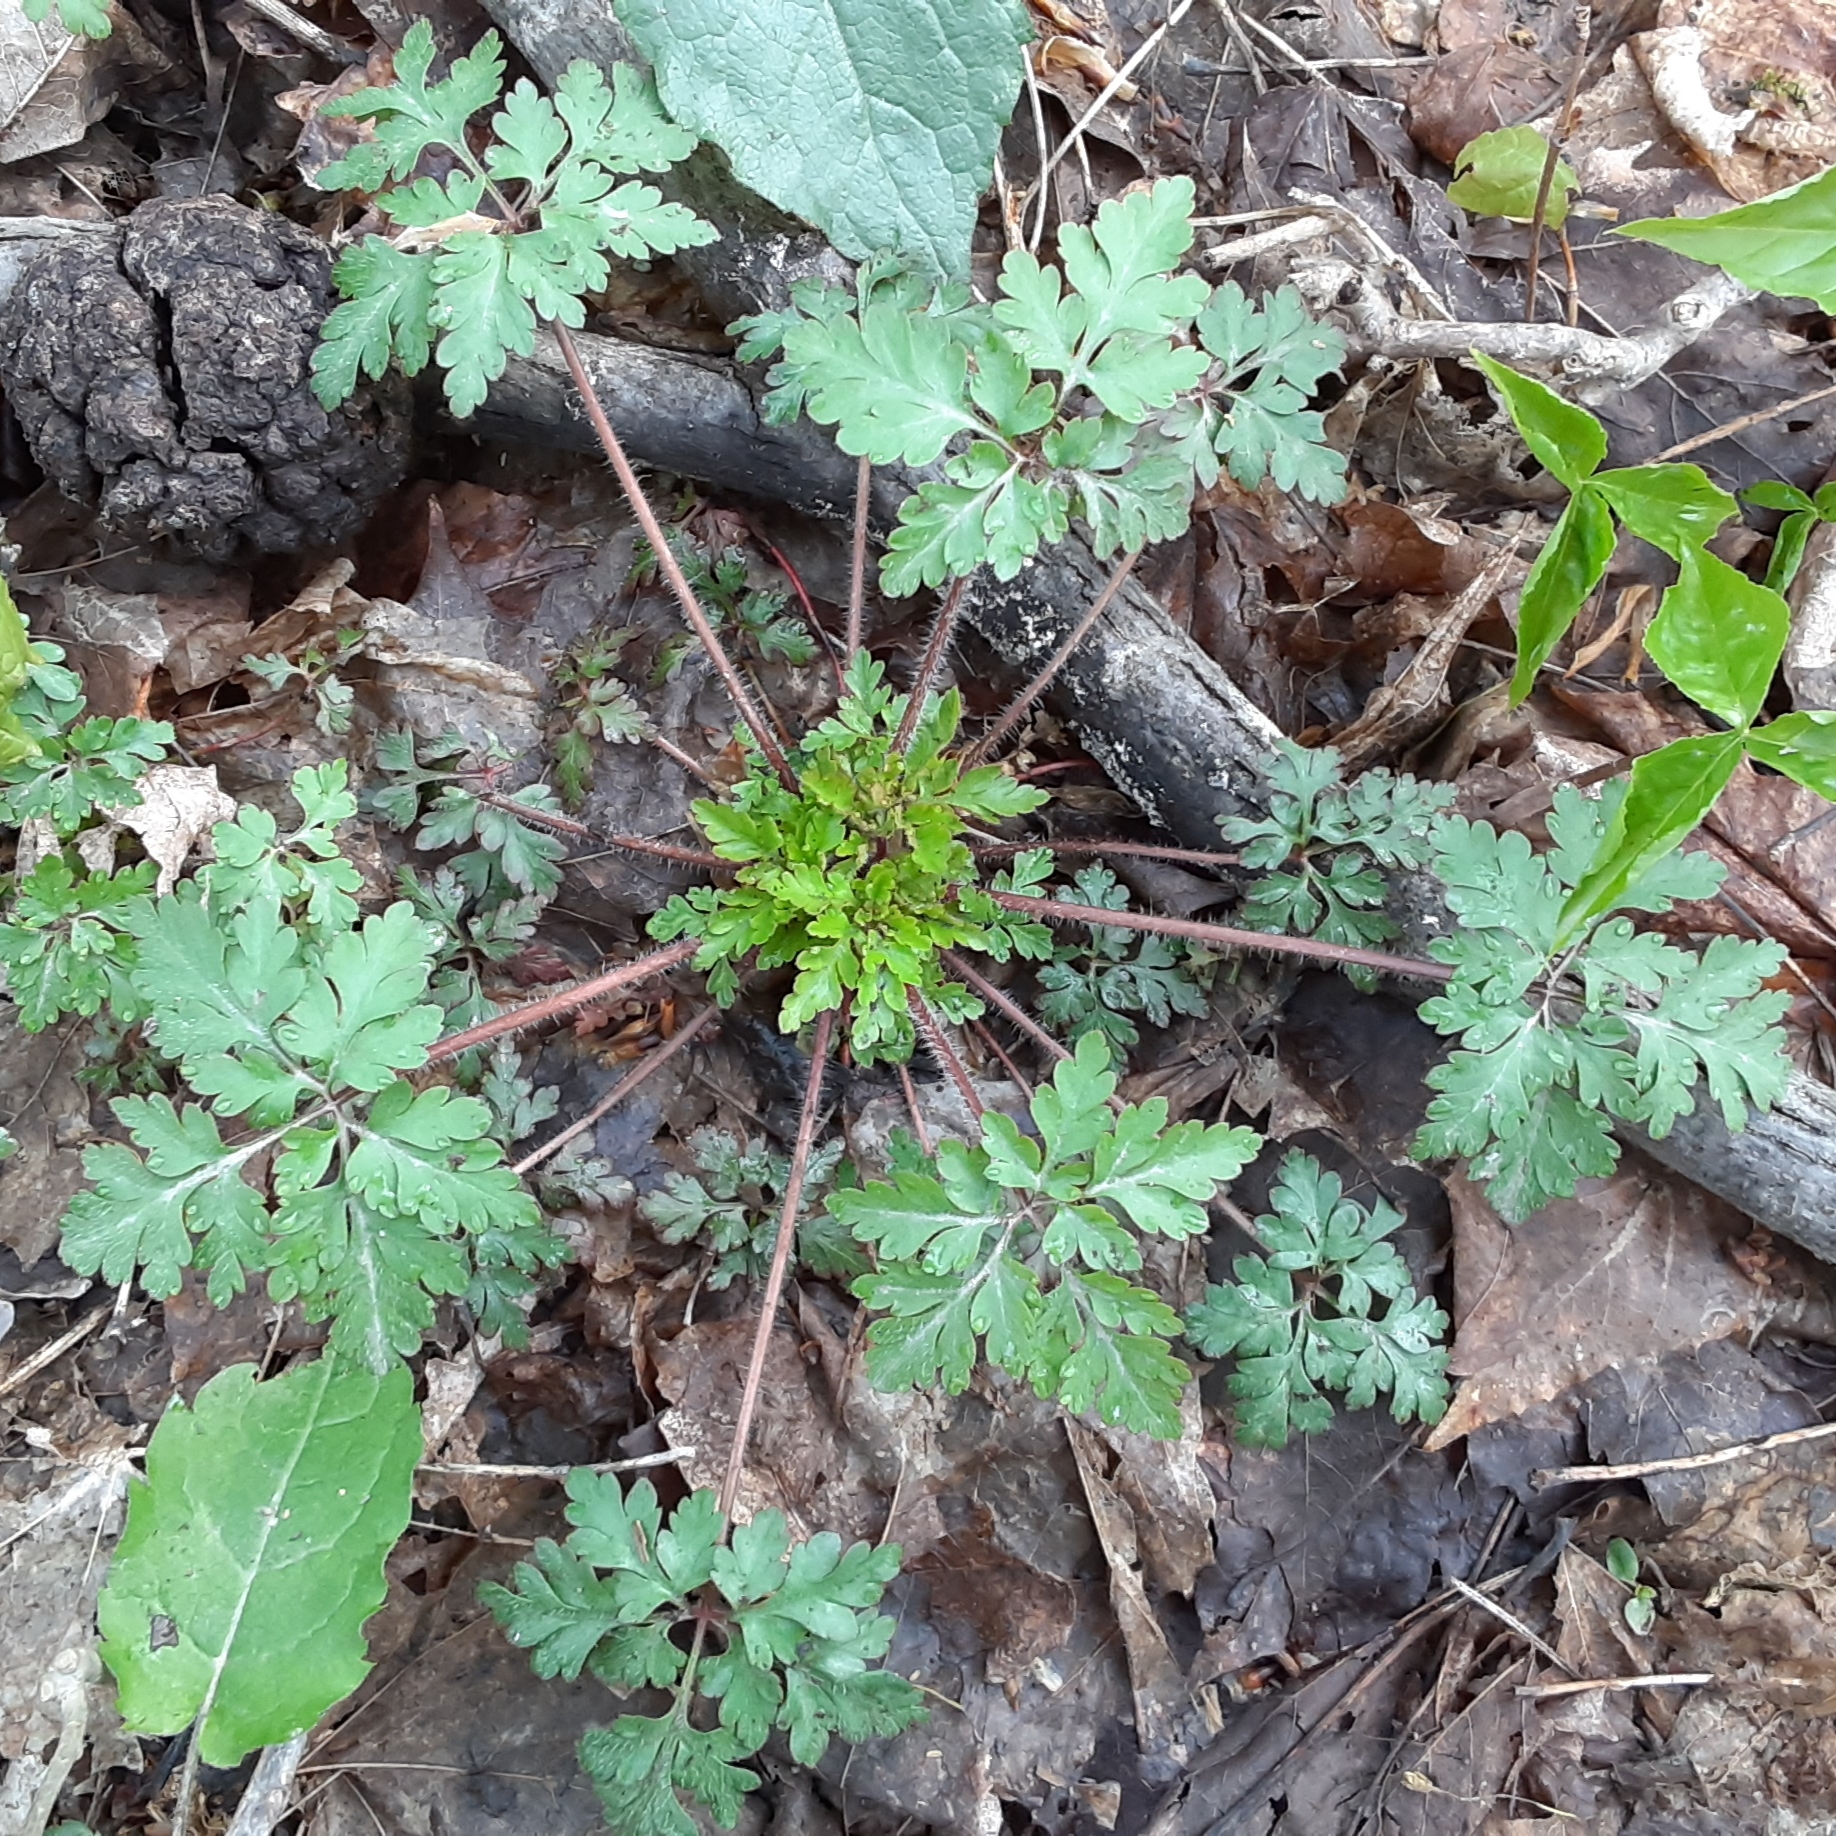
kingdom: Plantae
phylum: Tracheophyta
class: Magnoliopsida
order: Geraniales
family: Geraniaceae
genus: Geranium
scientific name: Geranium robertianum
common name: Herb-robert
